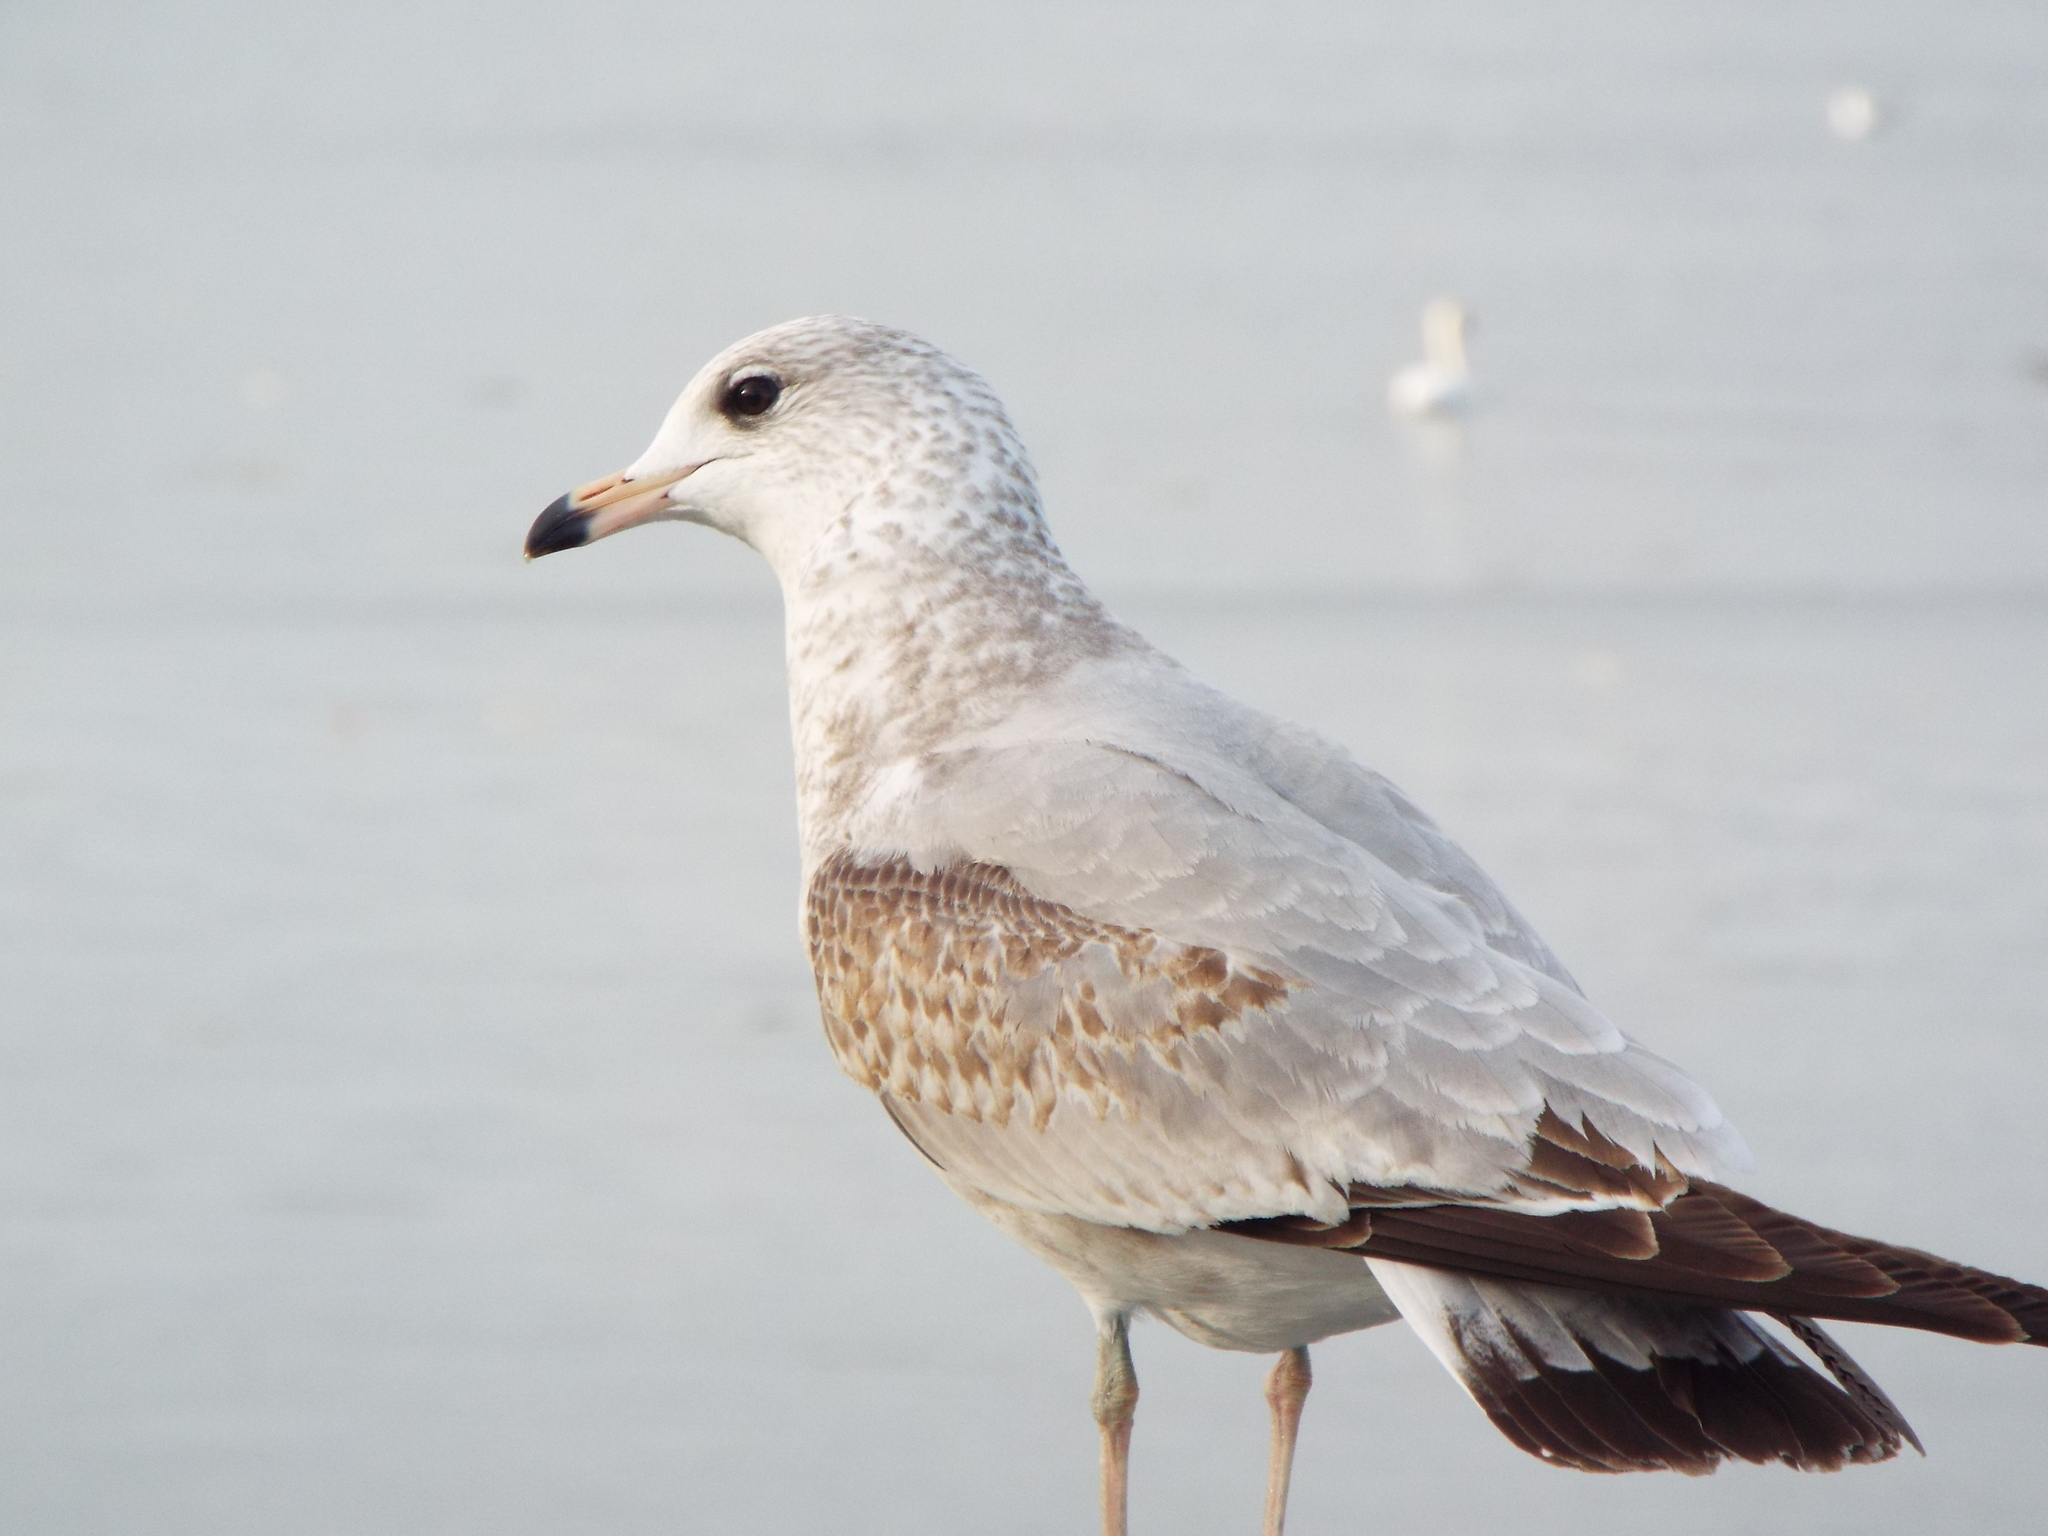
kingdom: Animalia
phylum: Chordata
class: Aves
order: Charadriiformes
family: Laridae
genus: Larus
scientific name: Larus delawarensis
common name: Ring-billed gull
